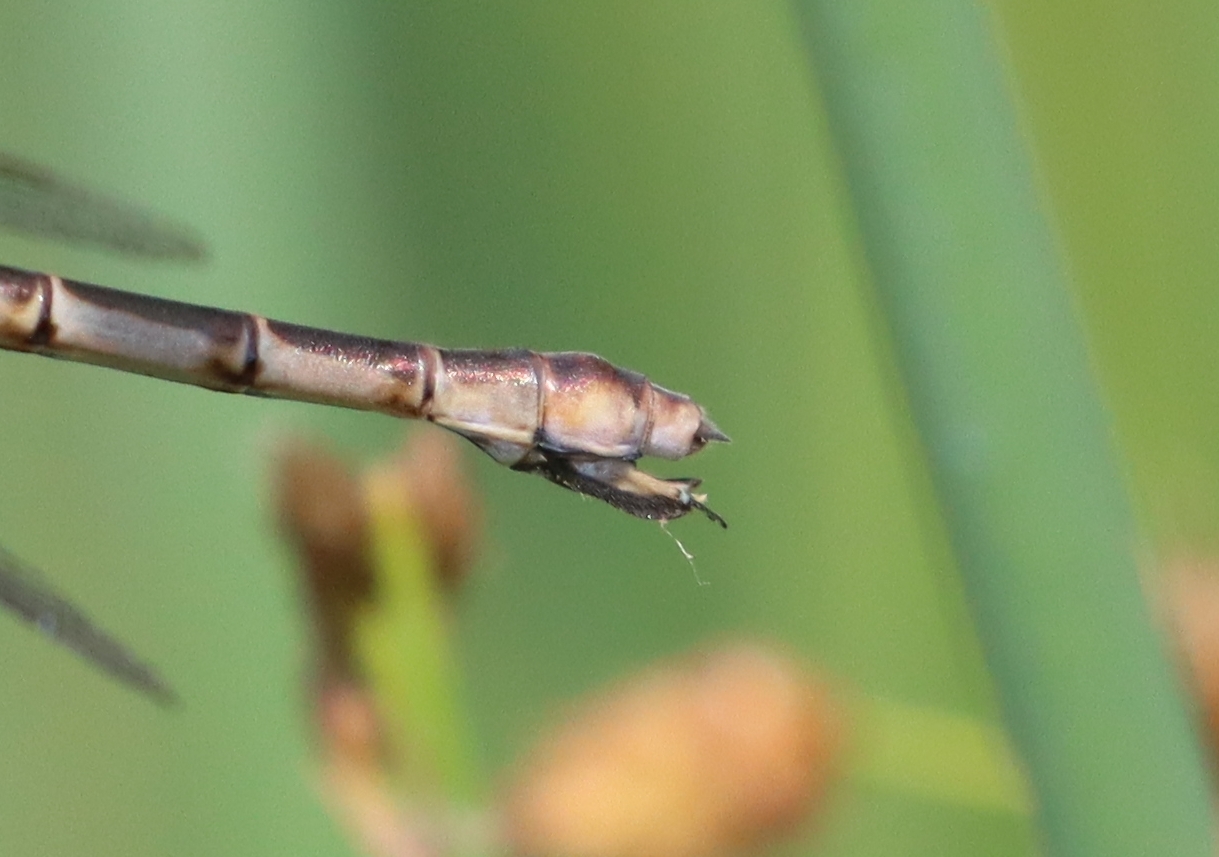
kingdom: Animalia
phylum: Arthropoda
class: Insecta
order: Odonata
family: Lestidae
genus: Lestes
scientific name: Lestes forcipatus
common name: Sweetflag spreadwing
